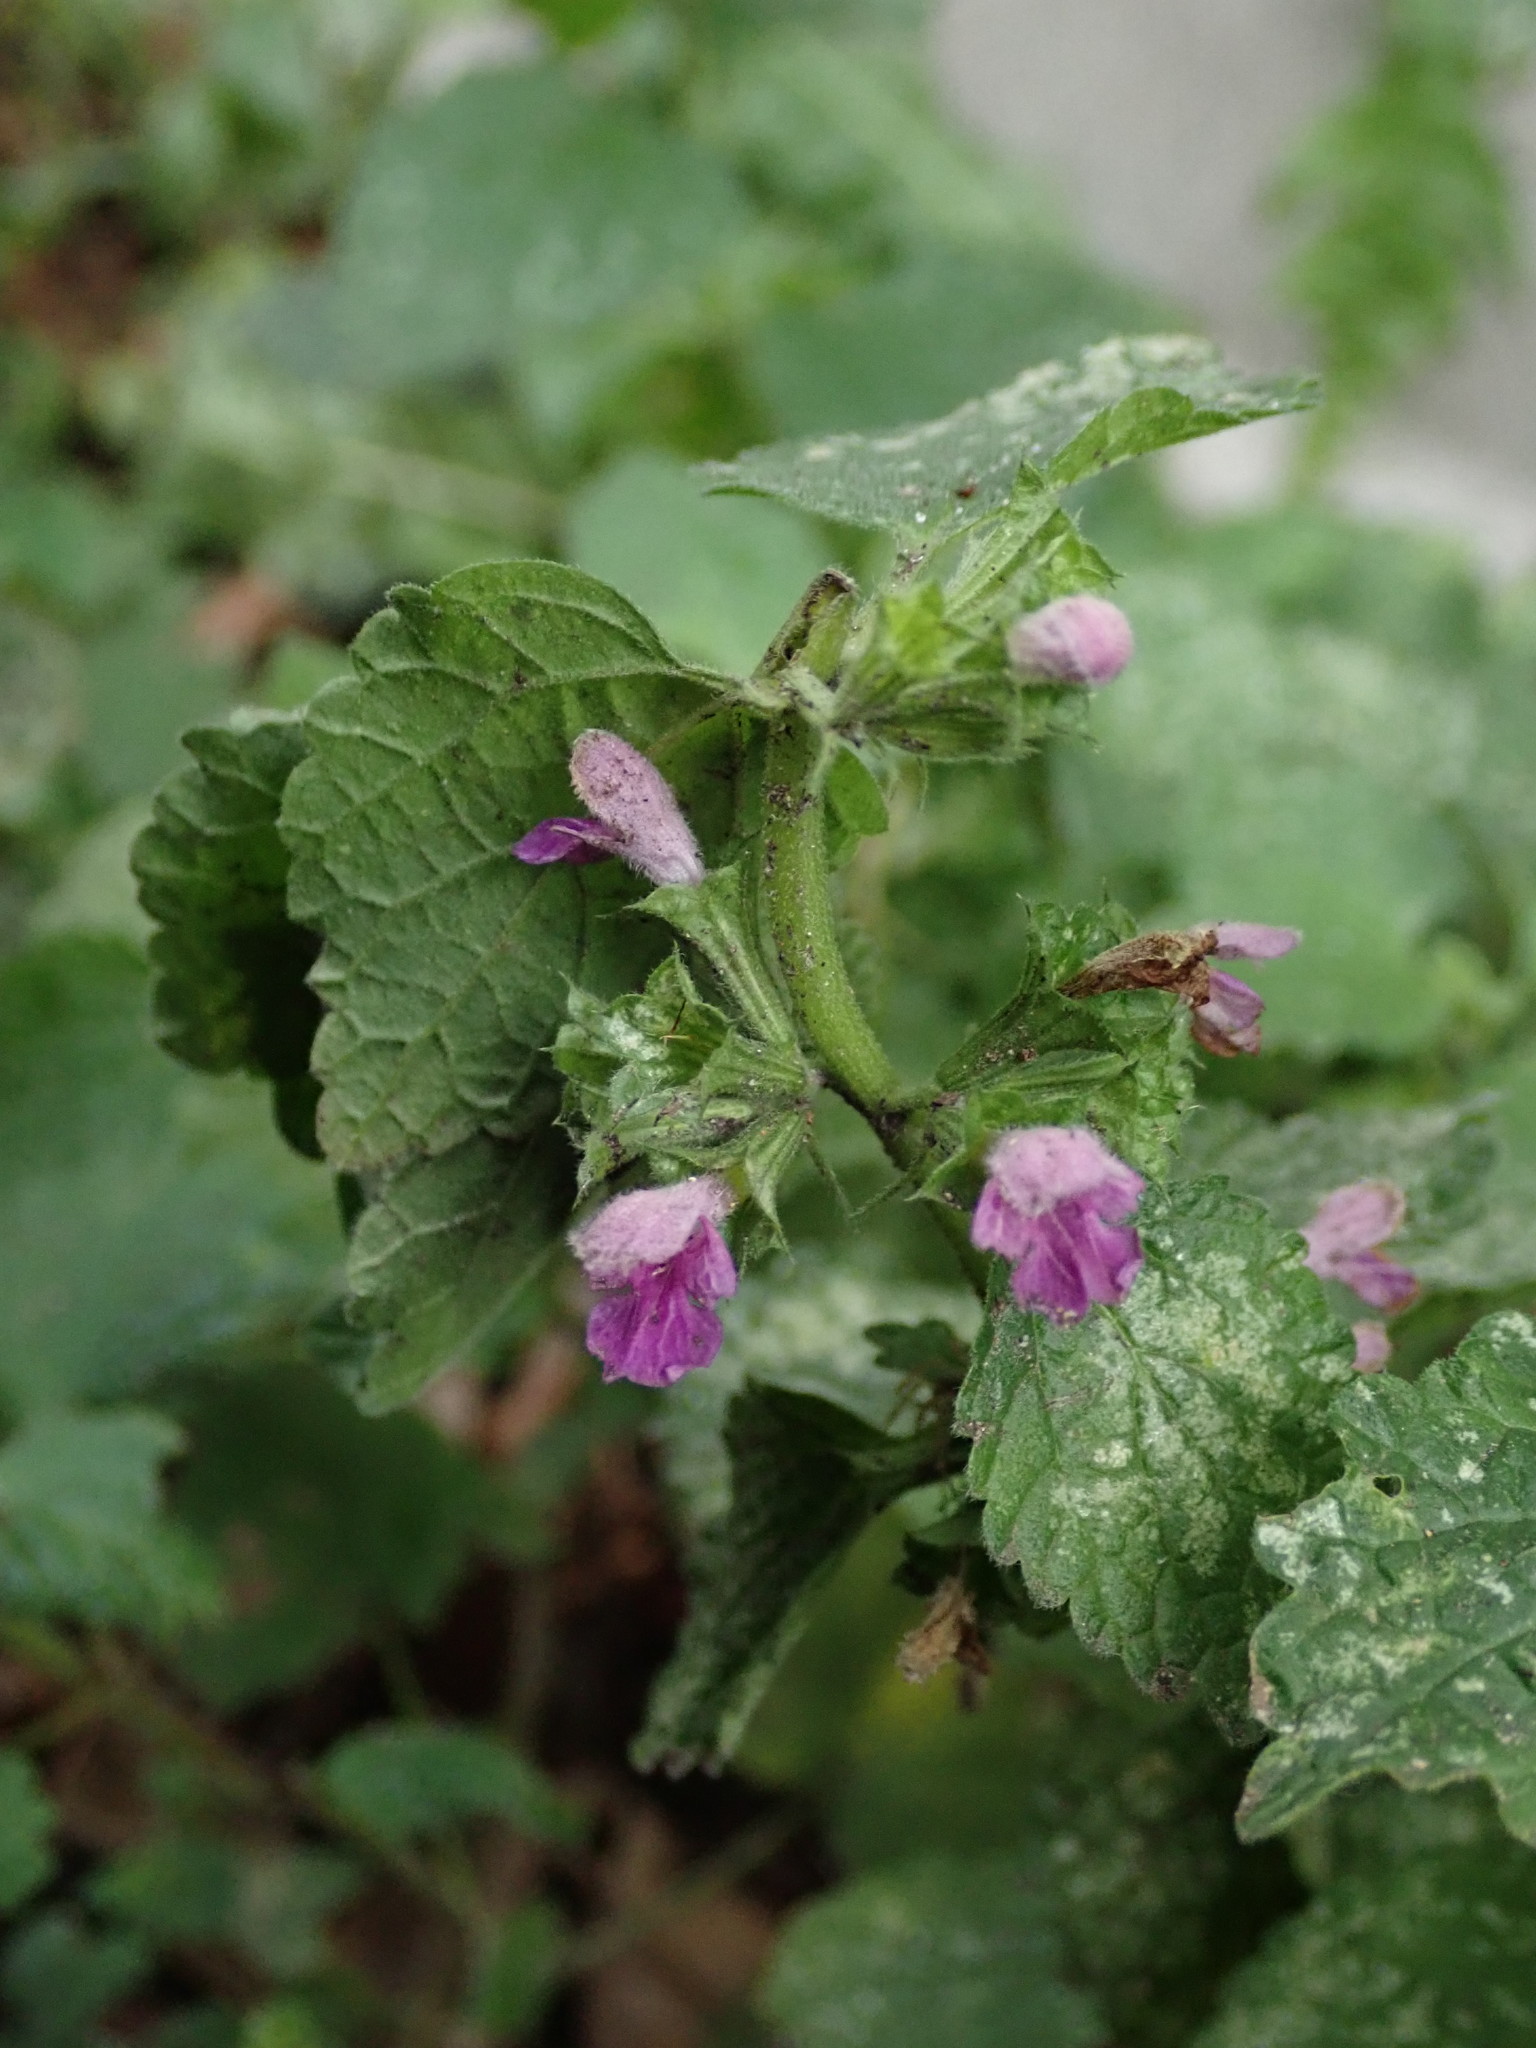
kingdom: Plantae
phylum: Tracheophyta
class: Magnoliopsida
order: Lamiales
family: Lamiaceae
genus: Ballota
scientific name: Ballota nigra
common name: Black horehound
